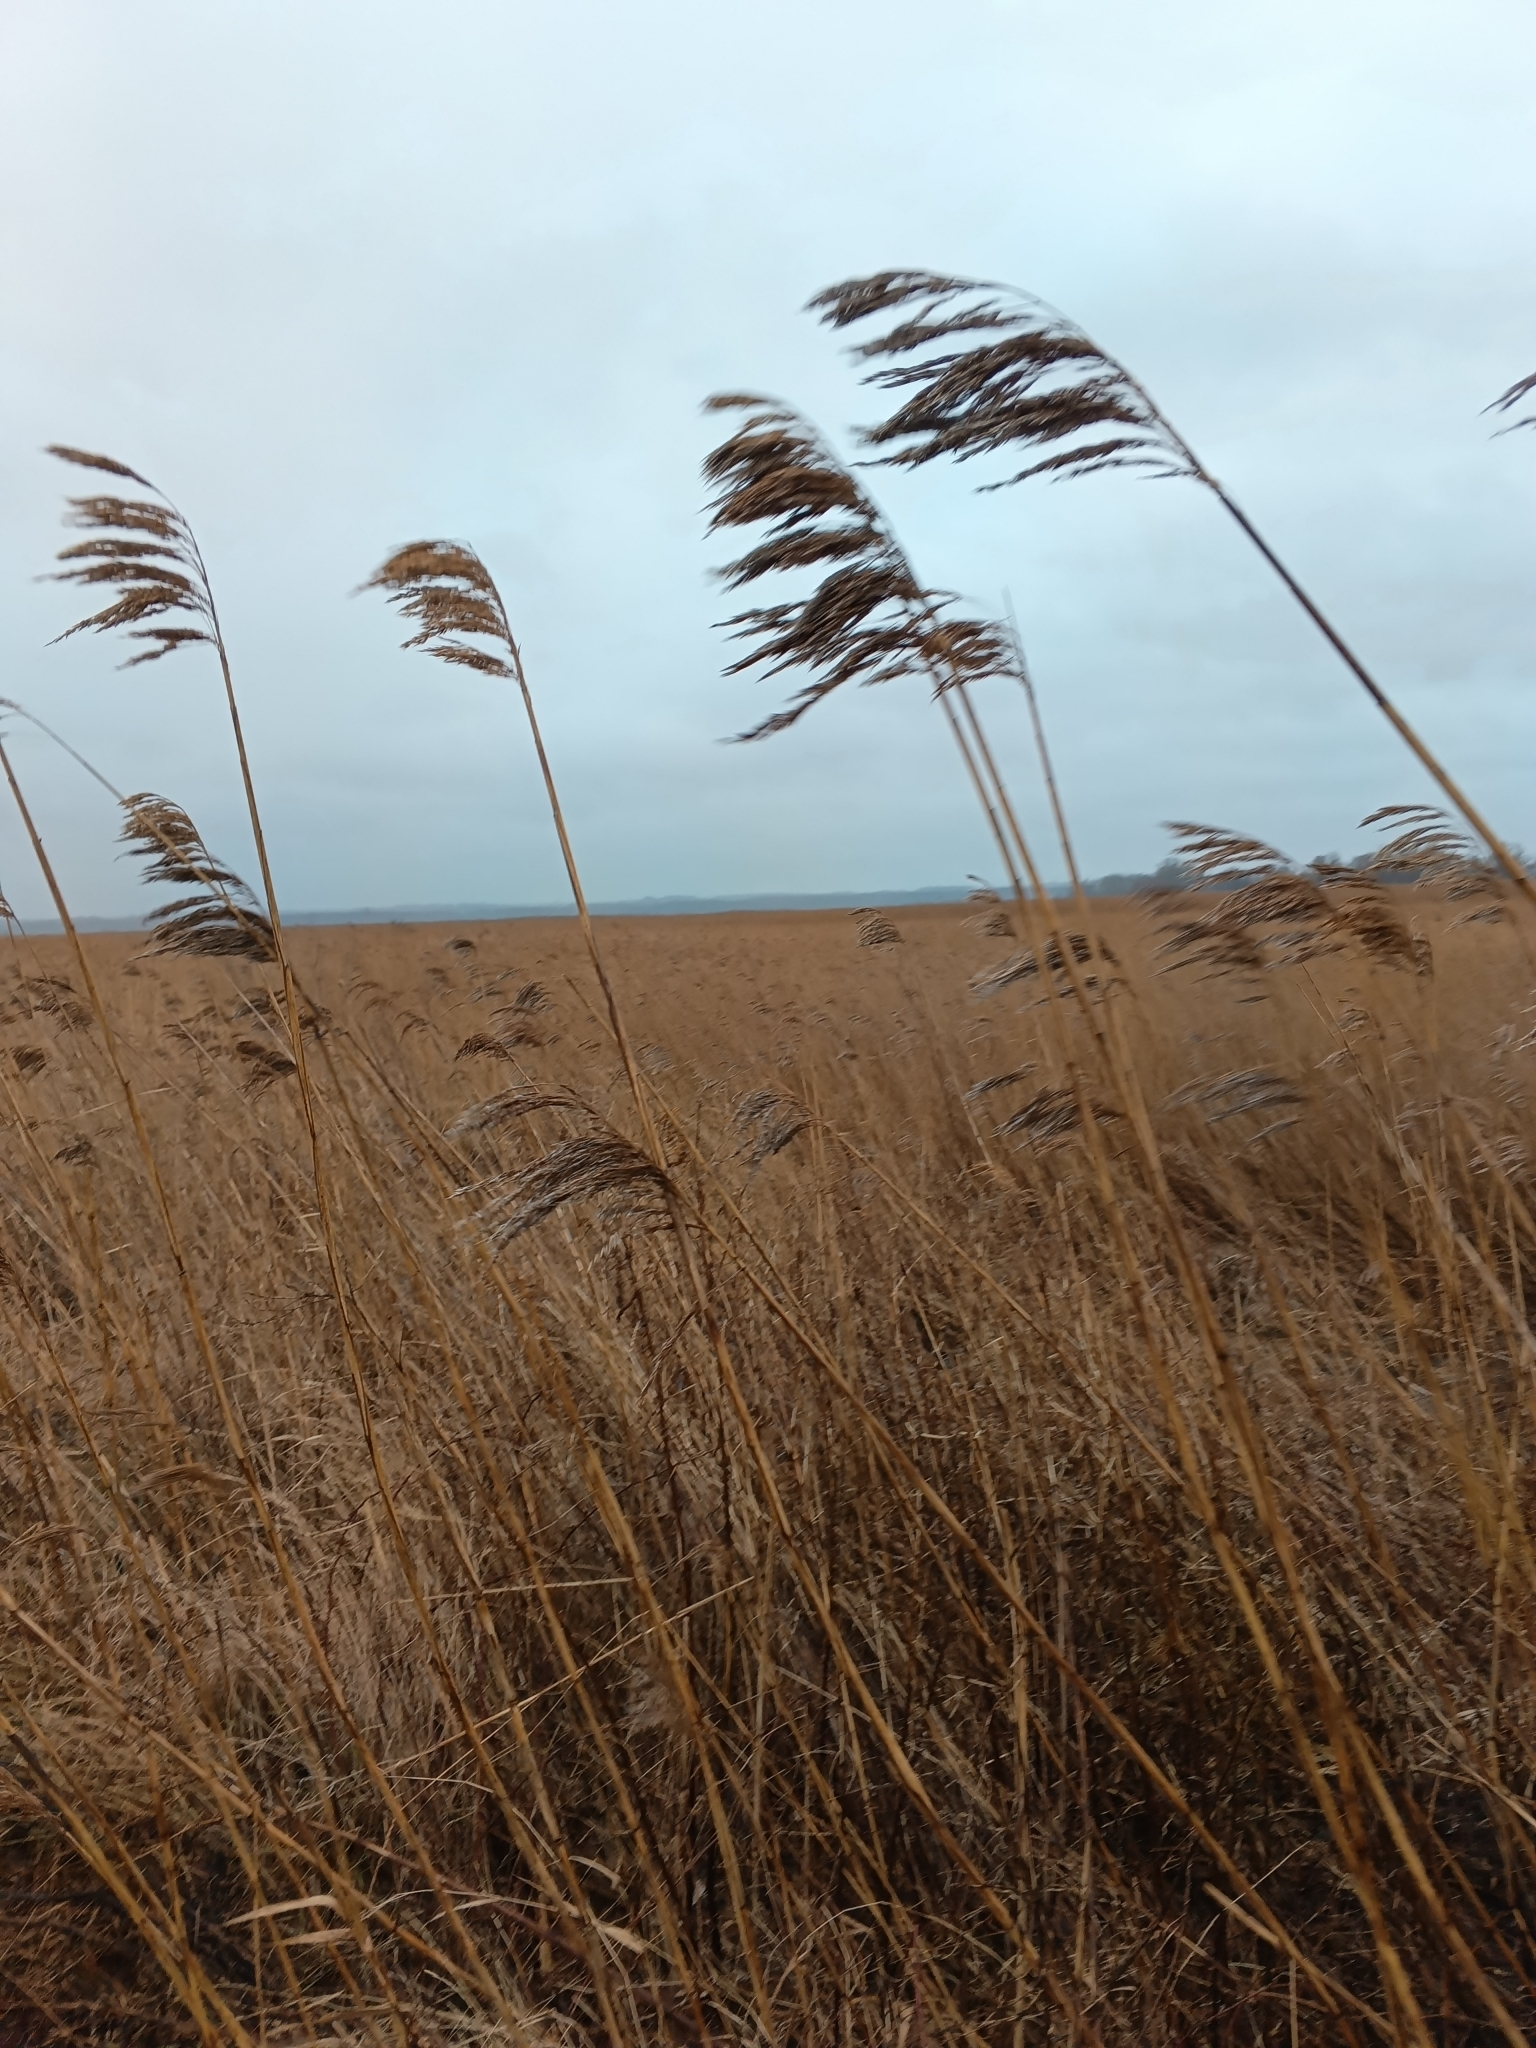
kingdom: Plantae
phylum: Tracheophyta
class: Liliopsida
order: Poales
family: Poaceae
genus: Phragmites
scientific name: Phragmites australis
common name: Common reed
